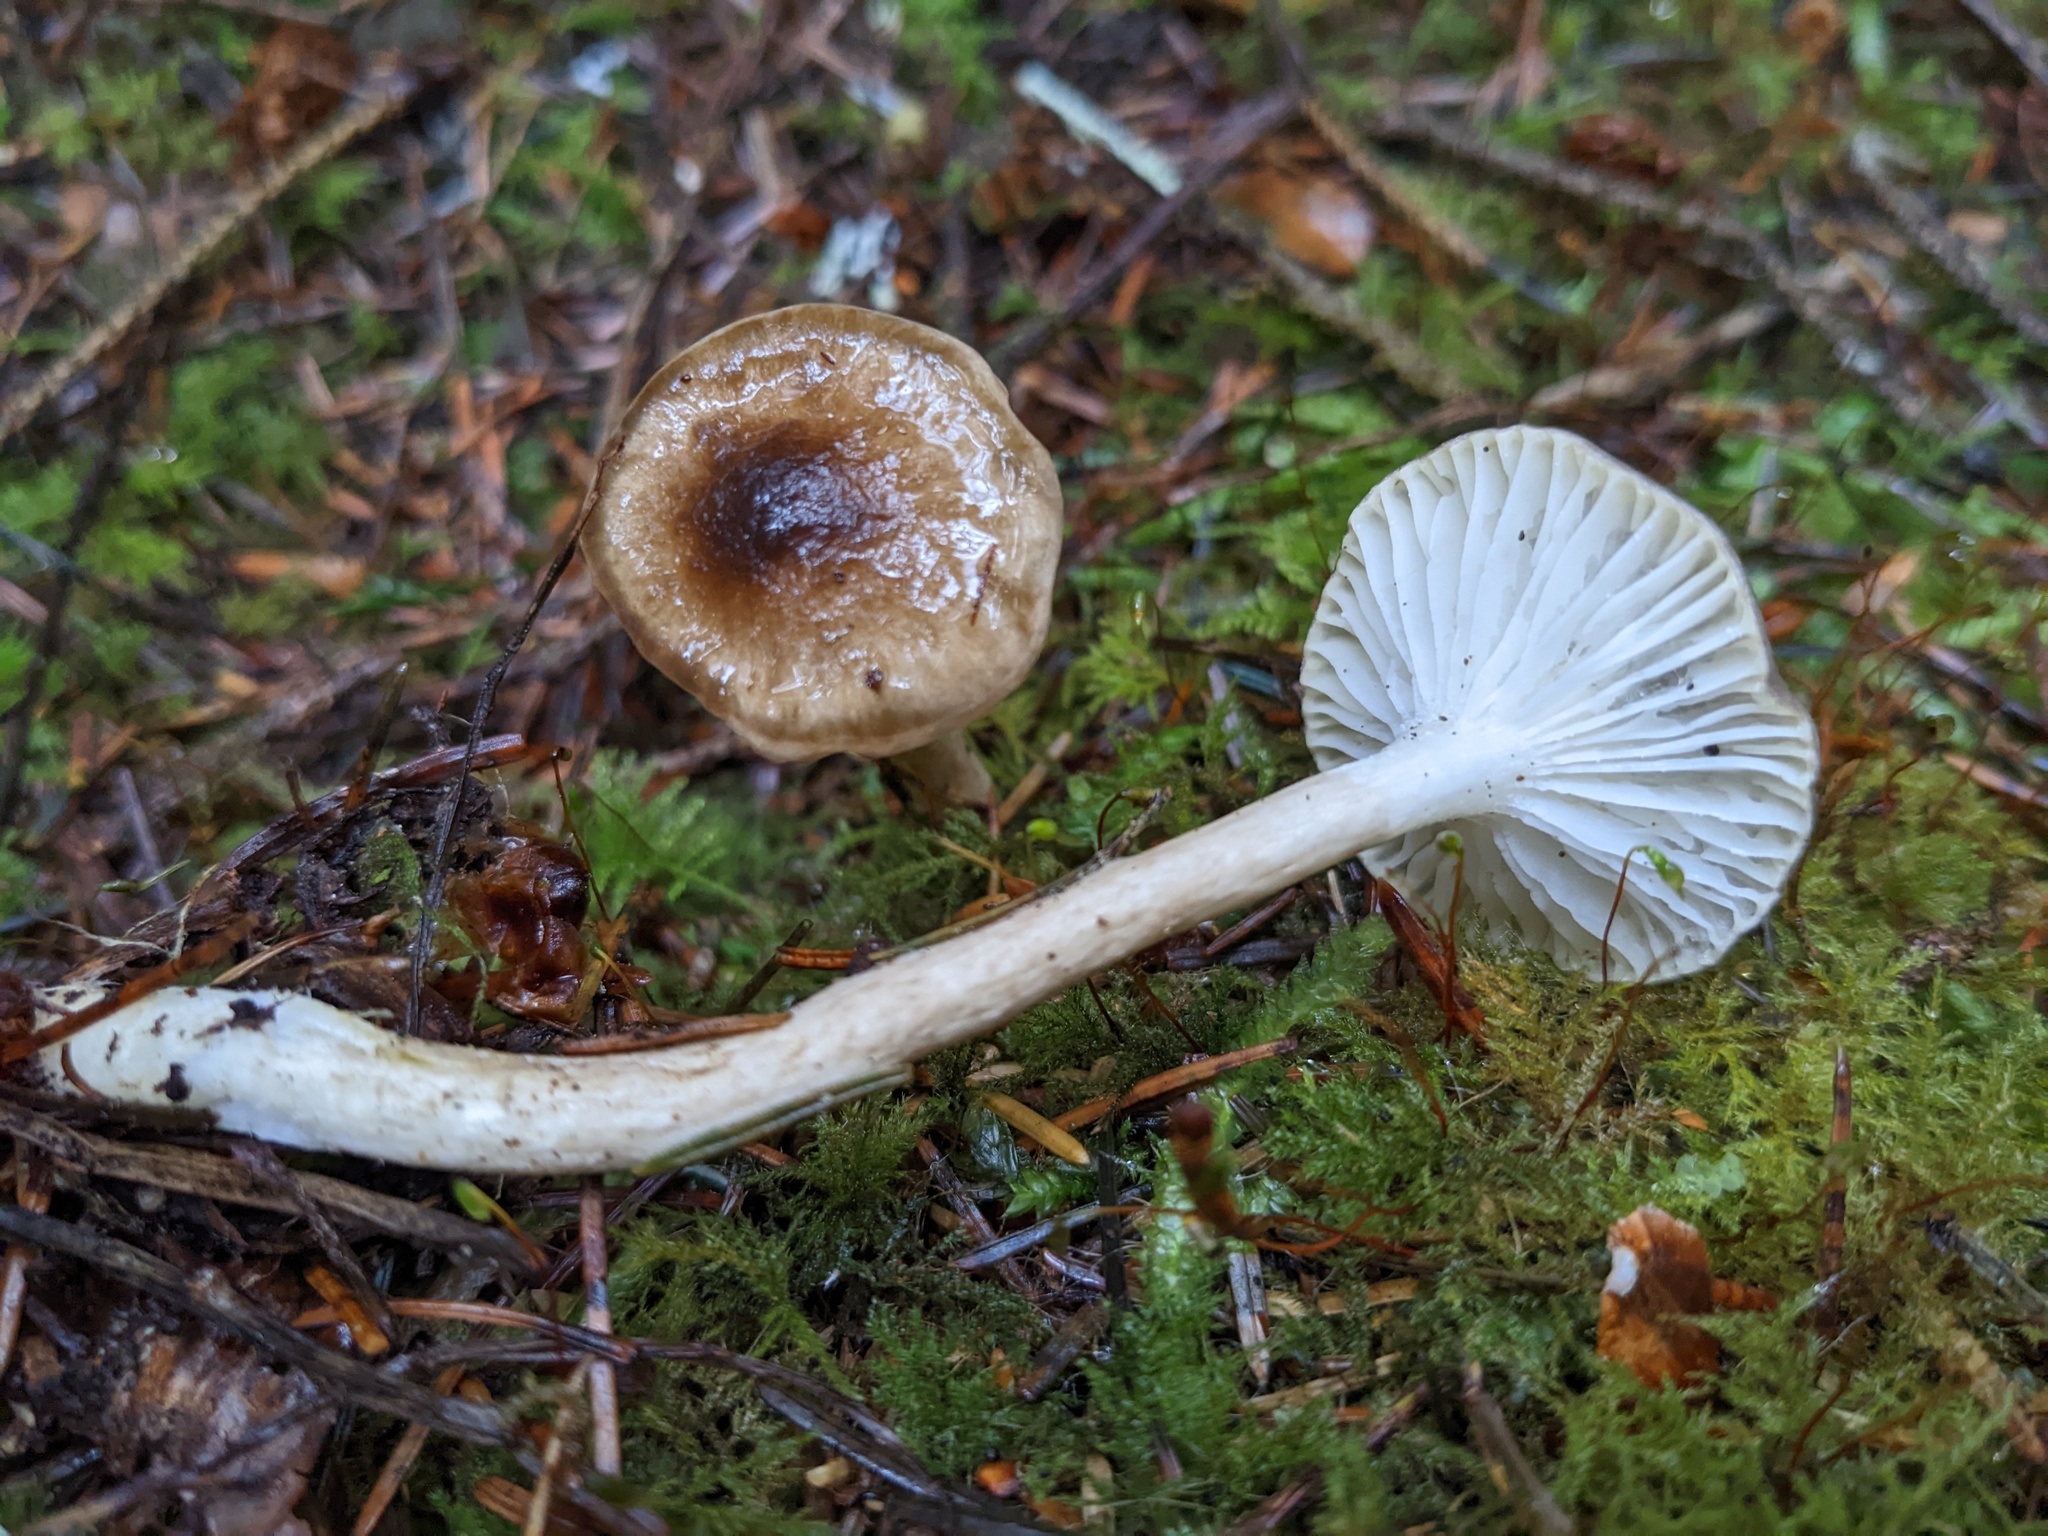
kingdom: Fungi
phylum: Basidiomycota
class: Agaricomycetes
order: Agaricales
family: Hygrophoraceae
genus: Hygrophorus
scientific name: Hygrophorus olivaceoalbus
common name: Olive wax cap
